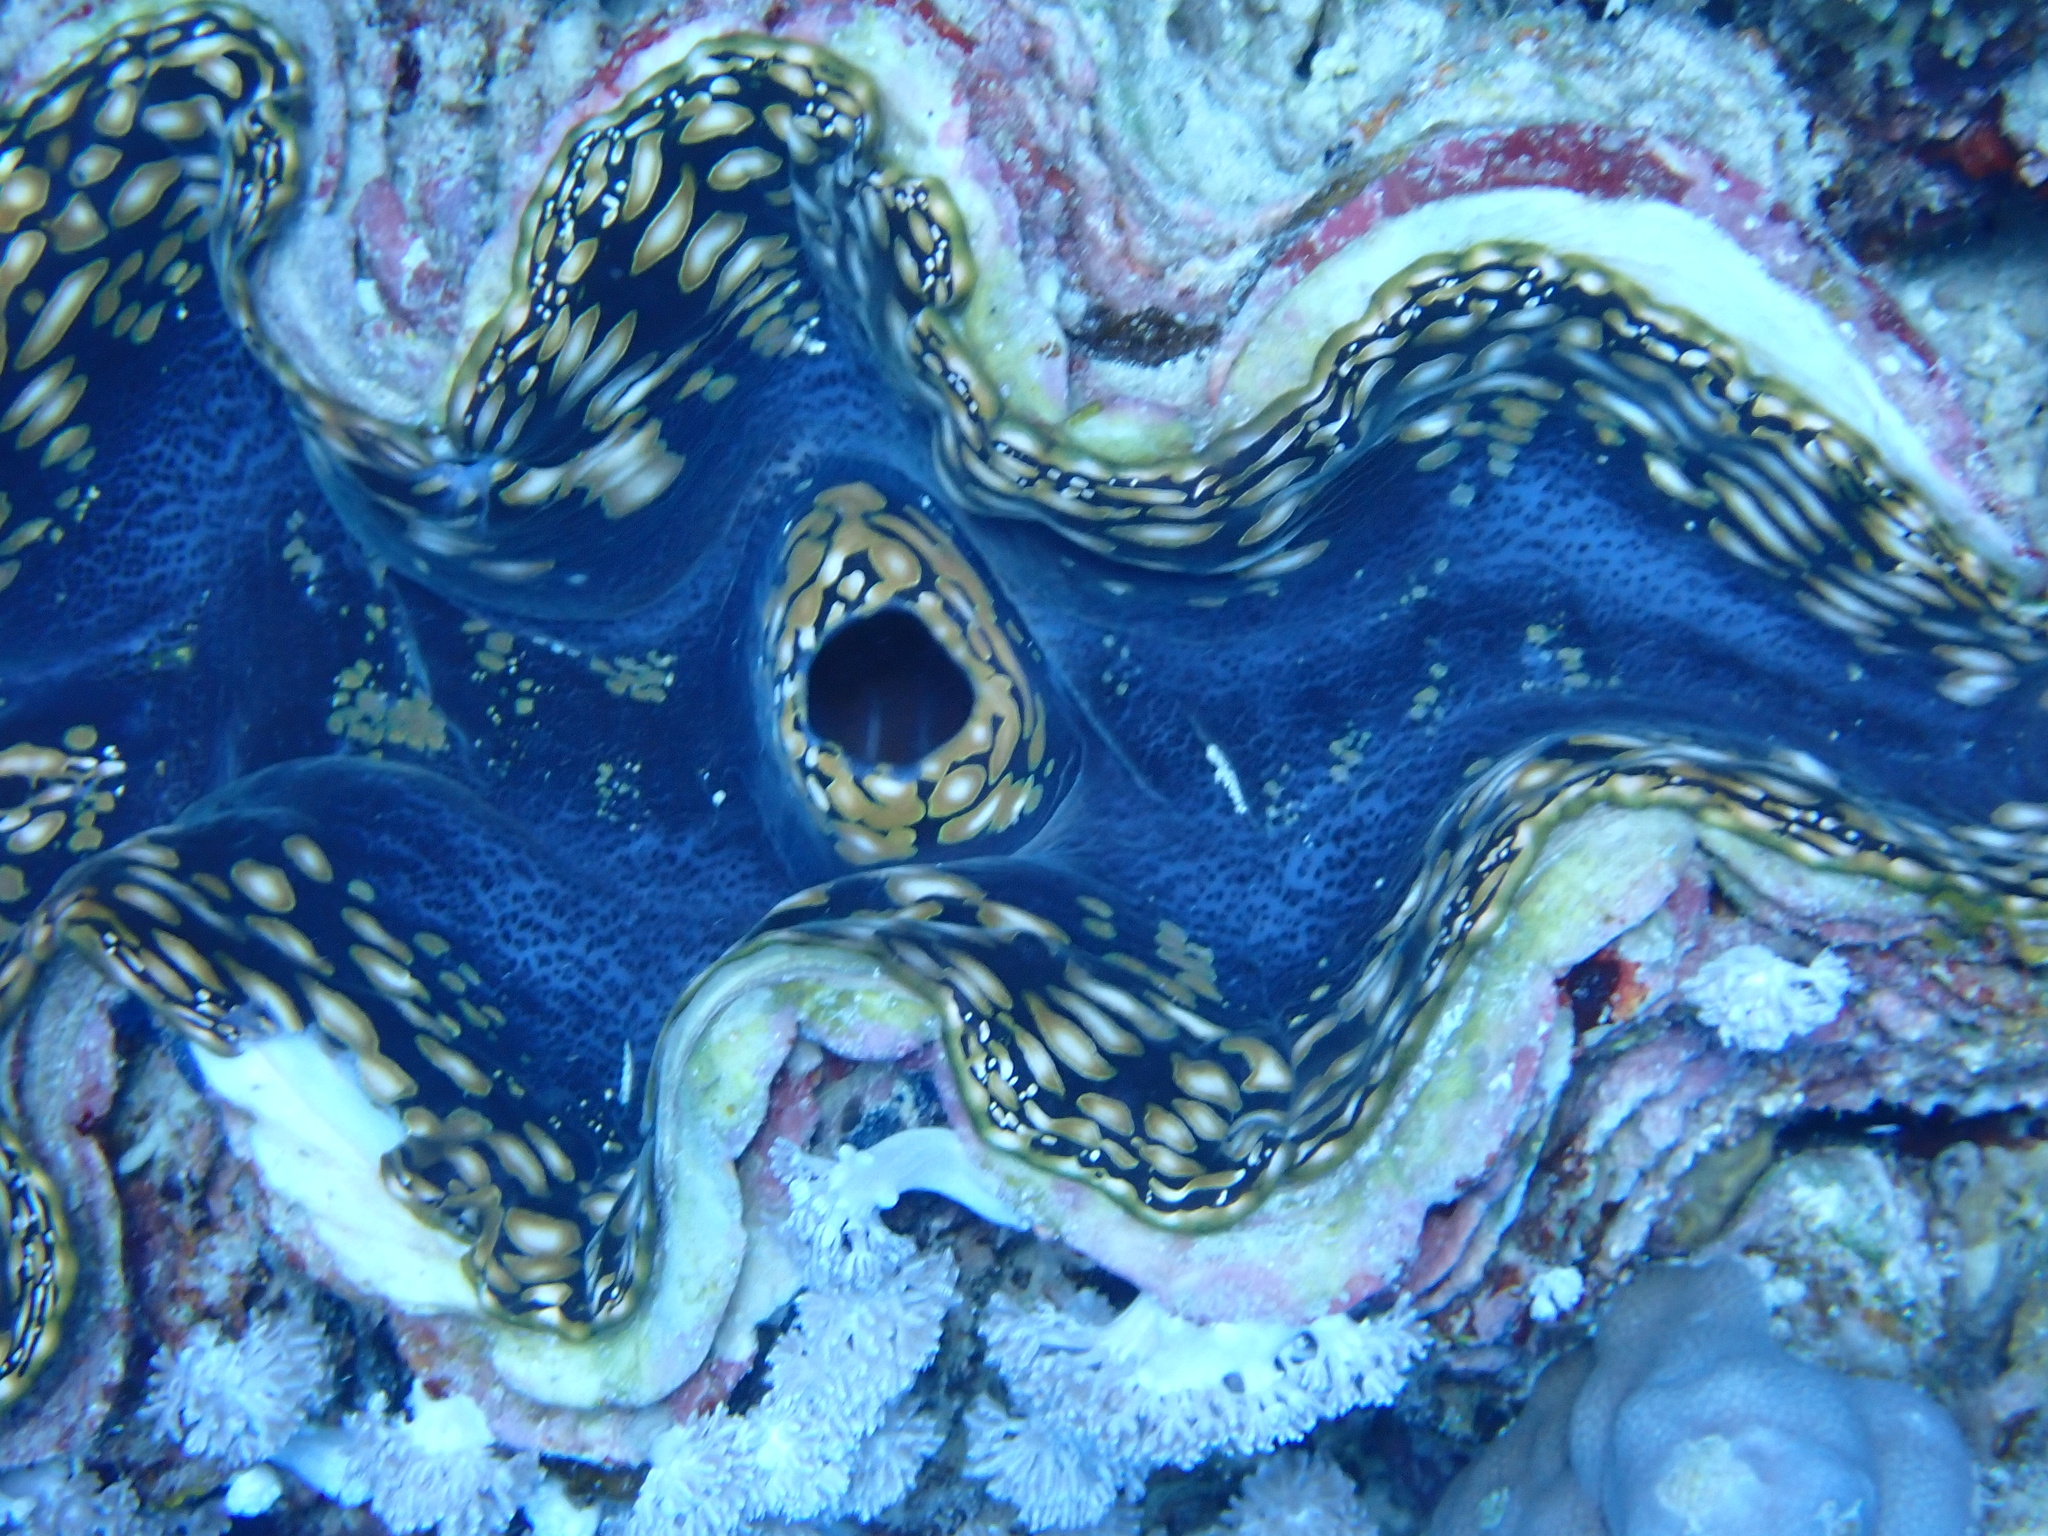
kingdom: Animalia
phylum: Mollusca
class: Bivalvia
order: Cardiida
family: Cardiidae
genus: Tridacna
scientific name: Tridacna squamosa
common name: Fluted clam
